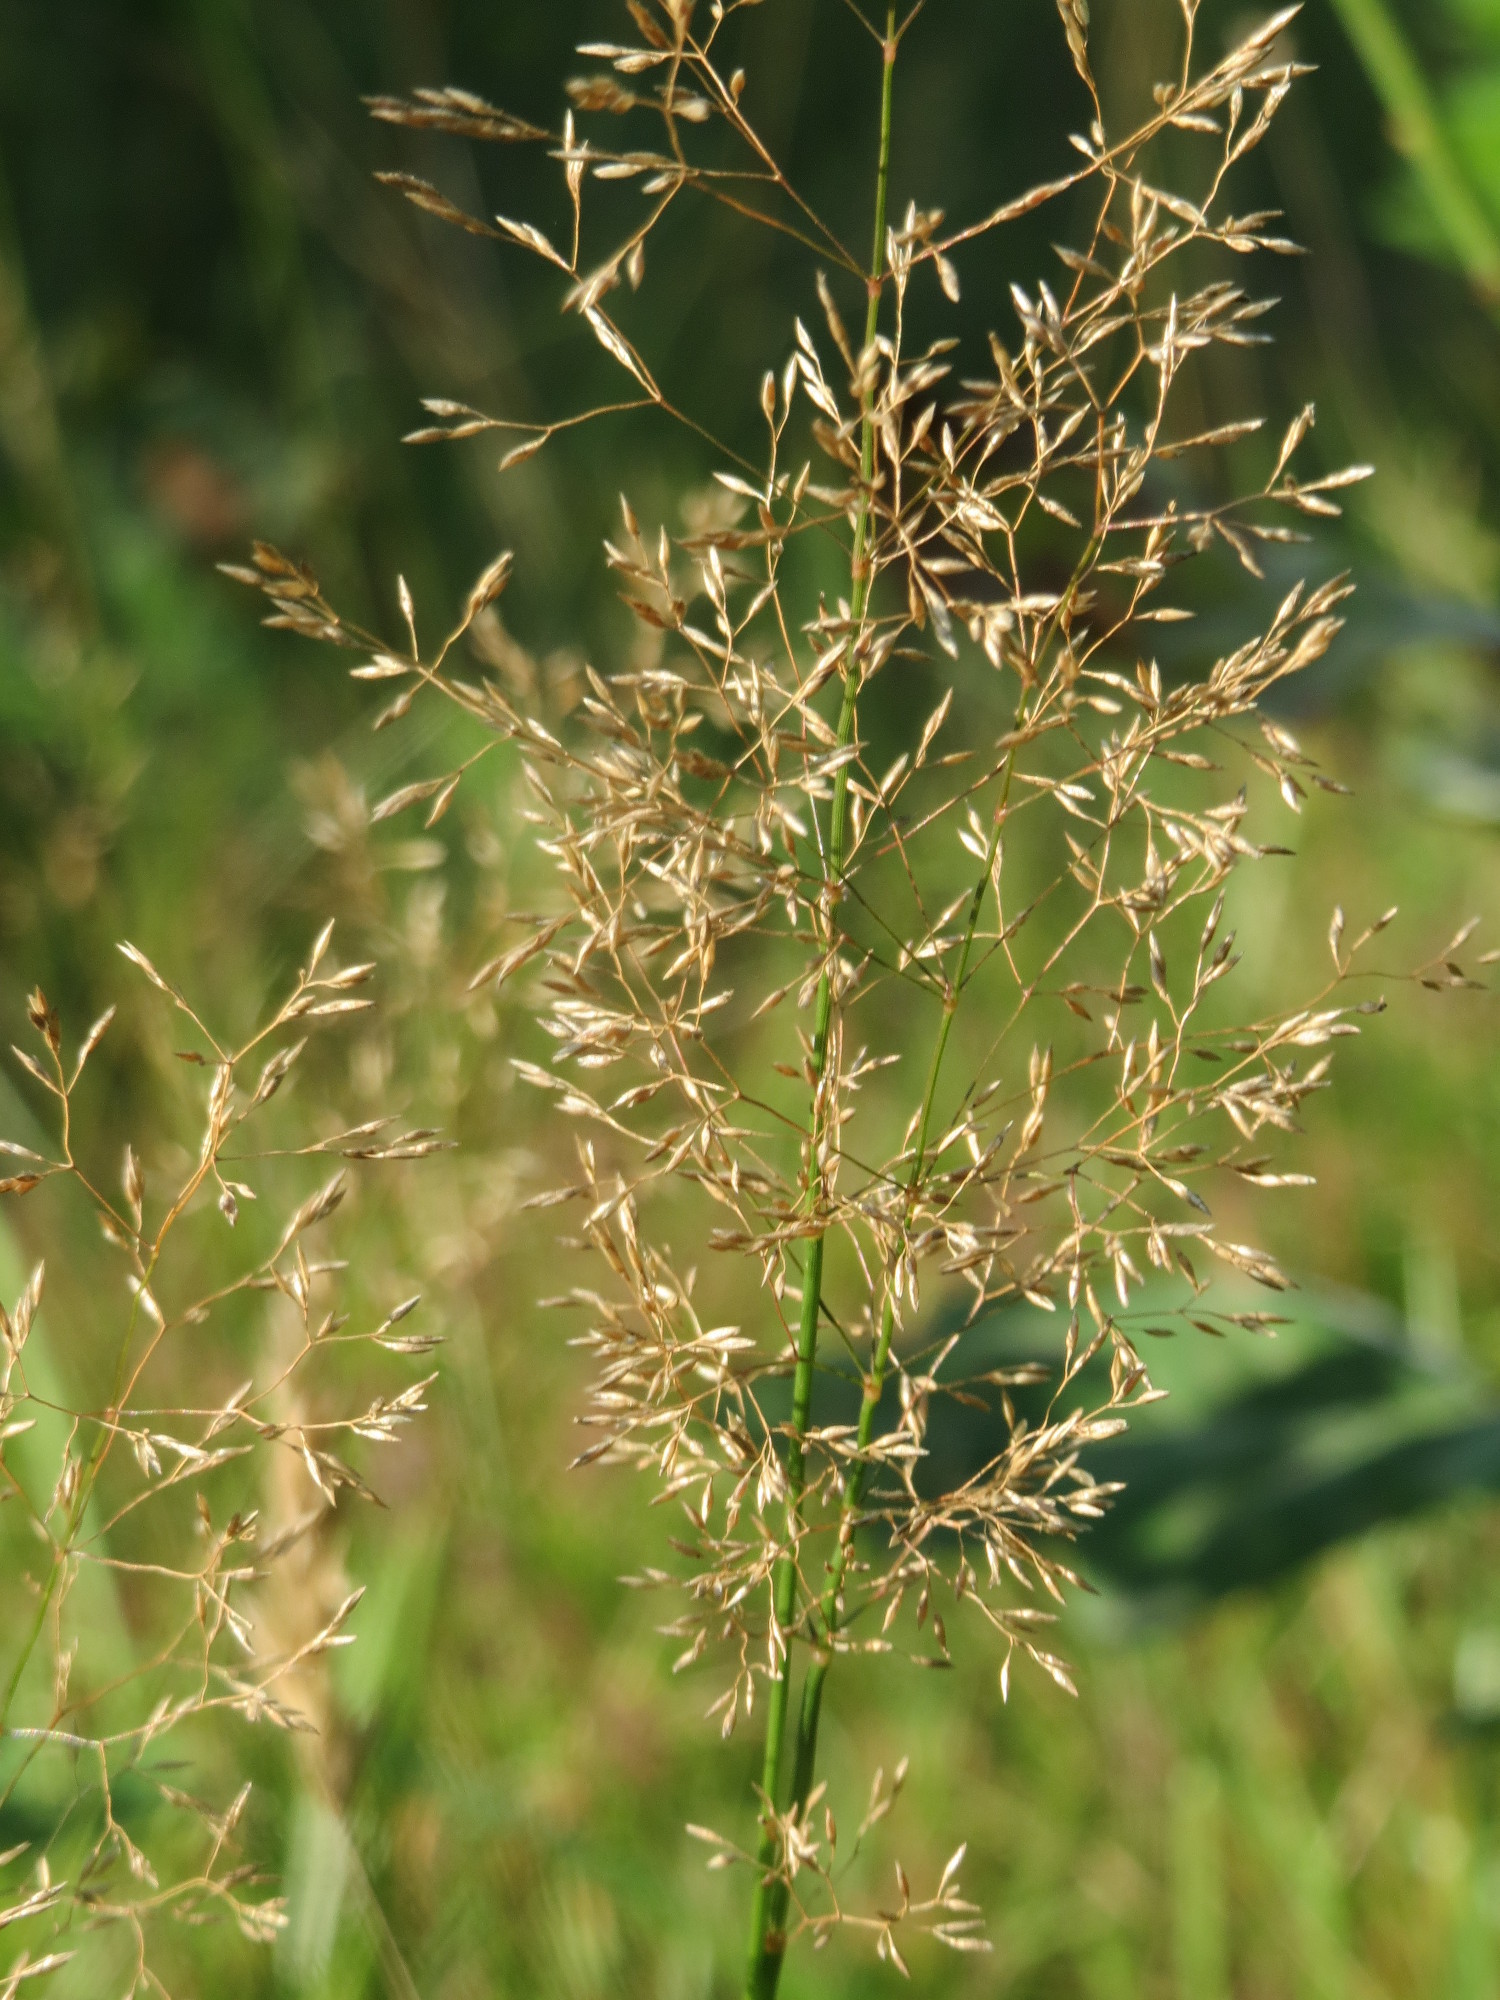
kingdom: Plantae
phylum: Tracheophyta
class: Liliopsida
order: Poales
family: Poaceae
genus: Agrostis
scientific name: Agrostis capillaris
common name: Colonial bentgrass
